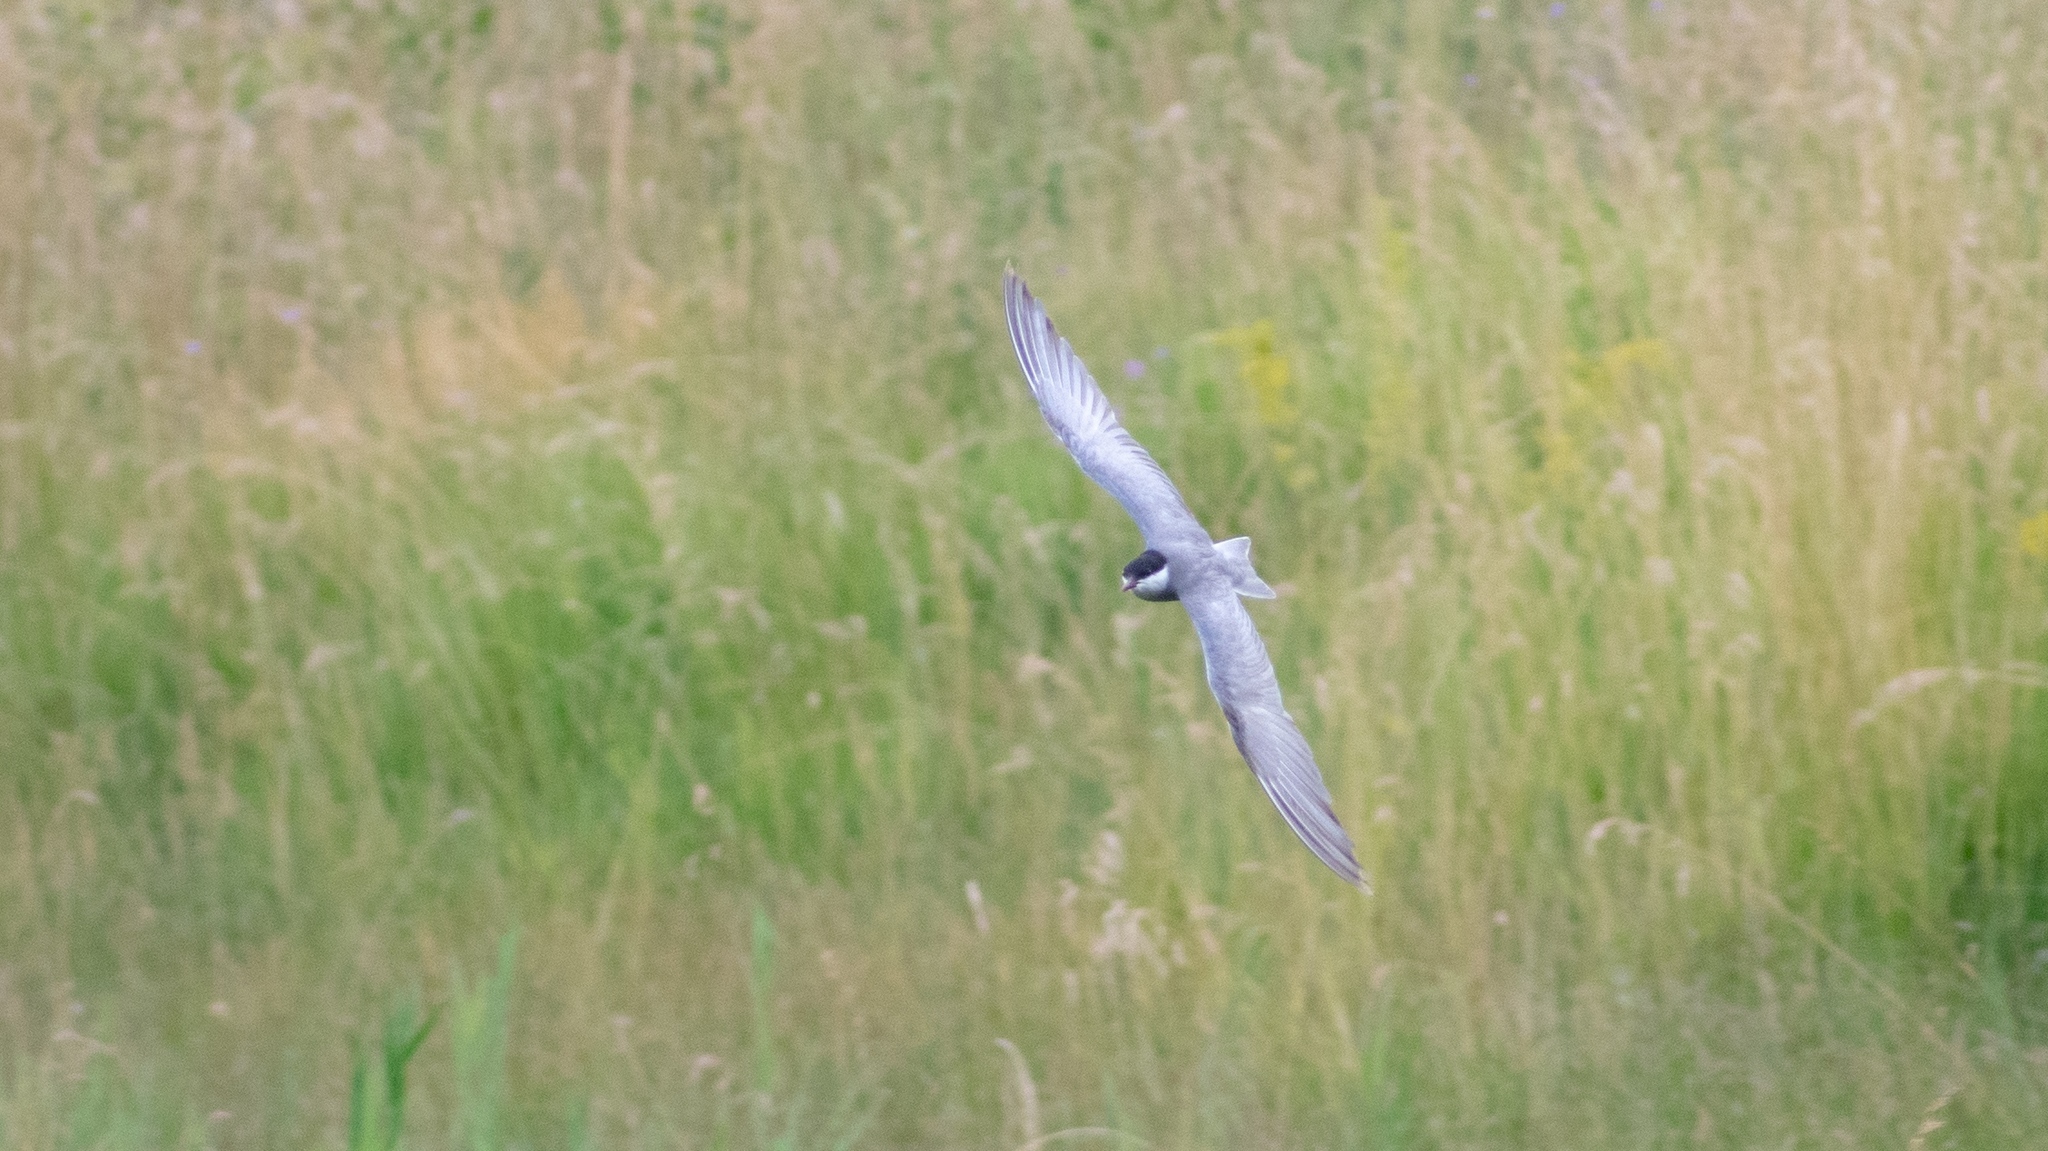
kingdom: Animalia
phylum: Chordata
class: Aves
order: Charadriiformes
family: Laridae
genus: Chlidonias
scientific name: Chlidonias hybrida
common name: Whiskered tern
